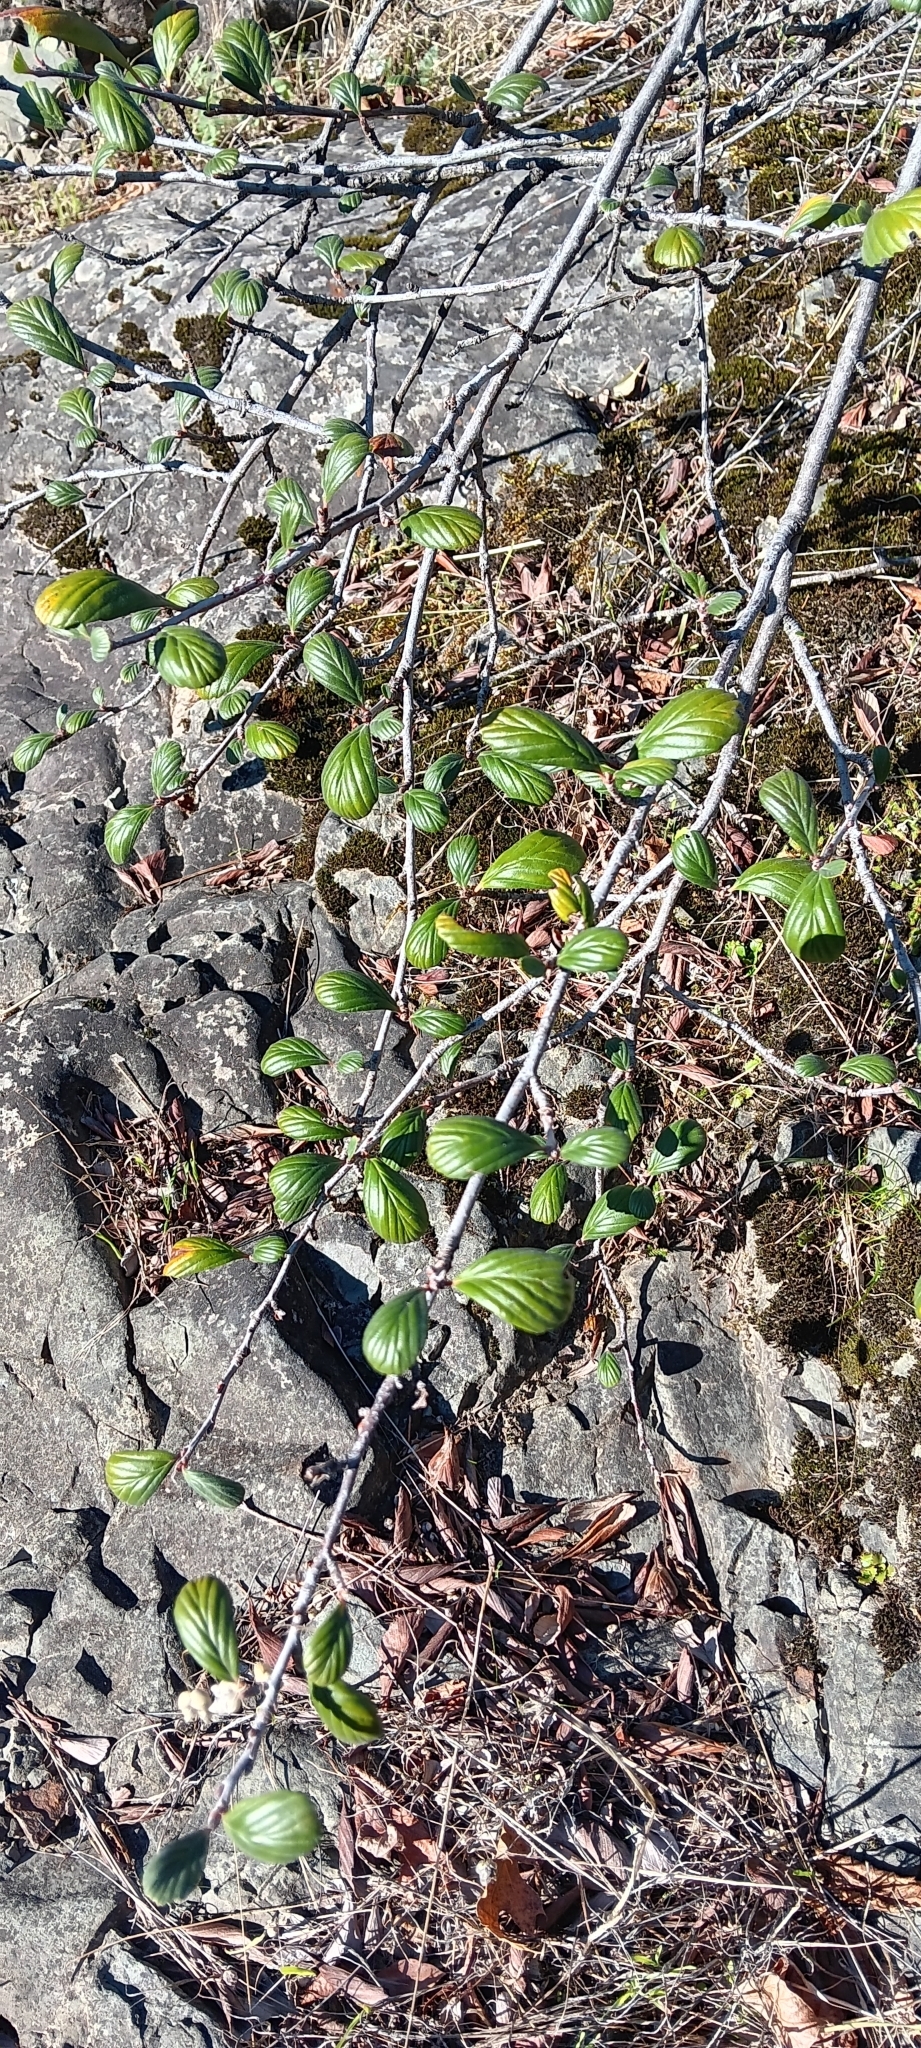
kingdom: Plantae
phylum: Tracheophyta
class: Magnoliopsida
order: Rosales
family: Rosaceae
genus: Cercocarpus
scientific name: Cercocarpus betuloides
